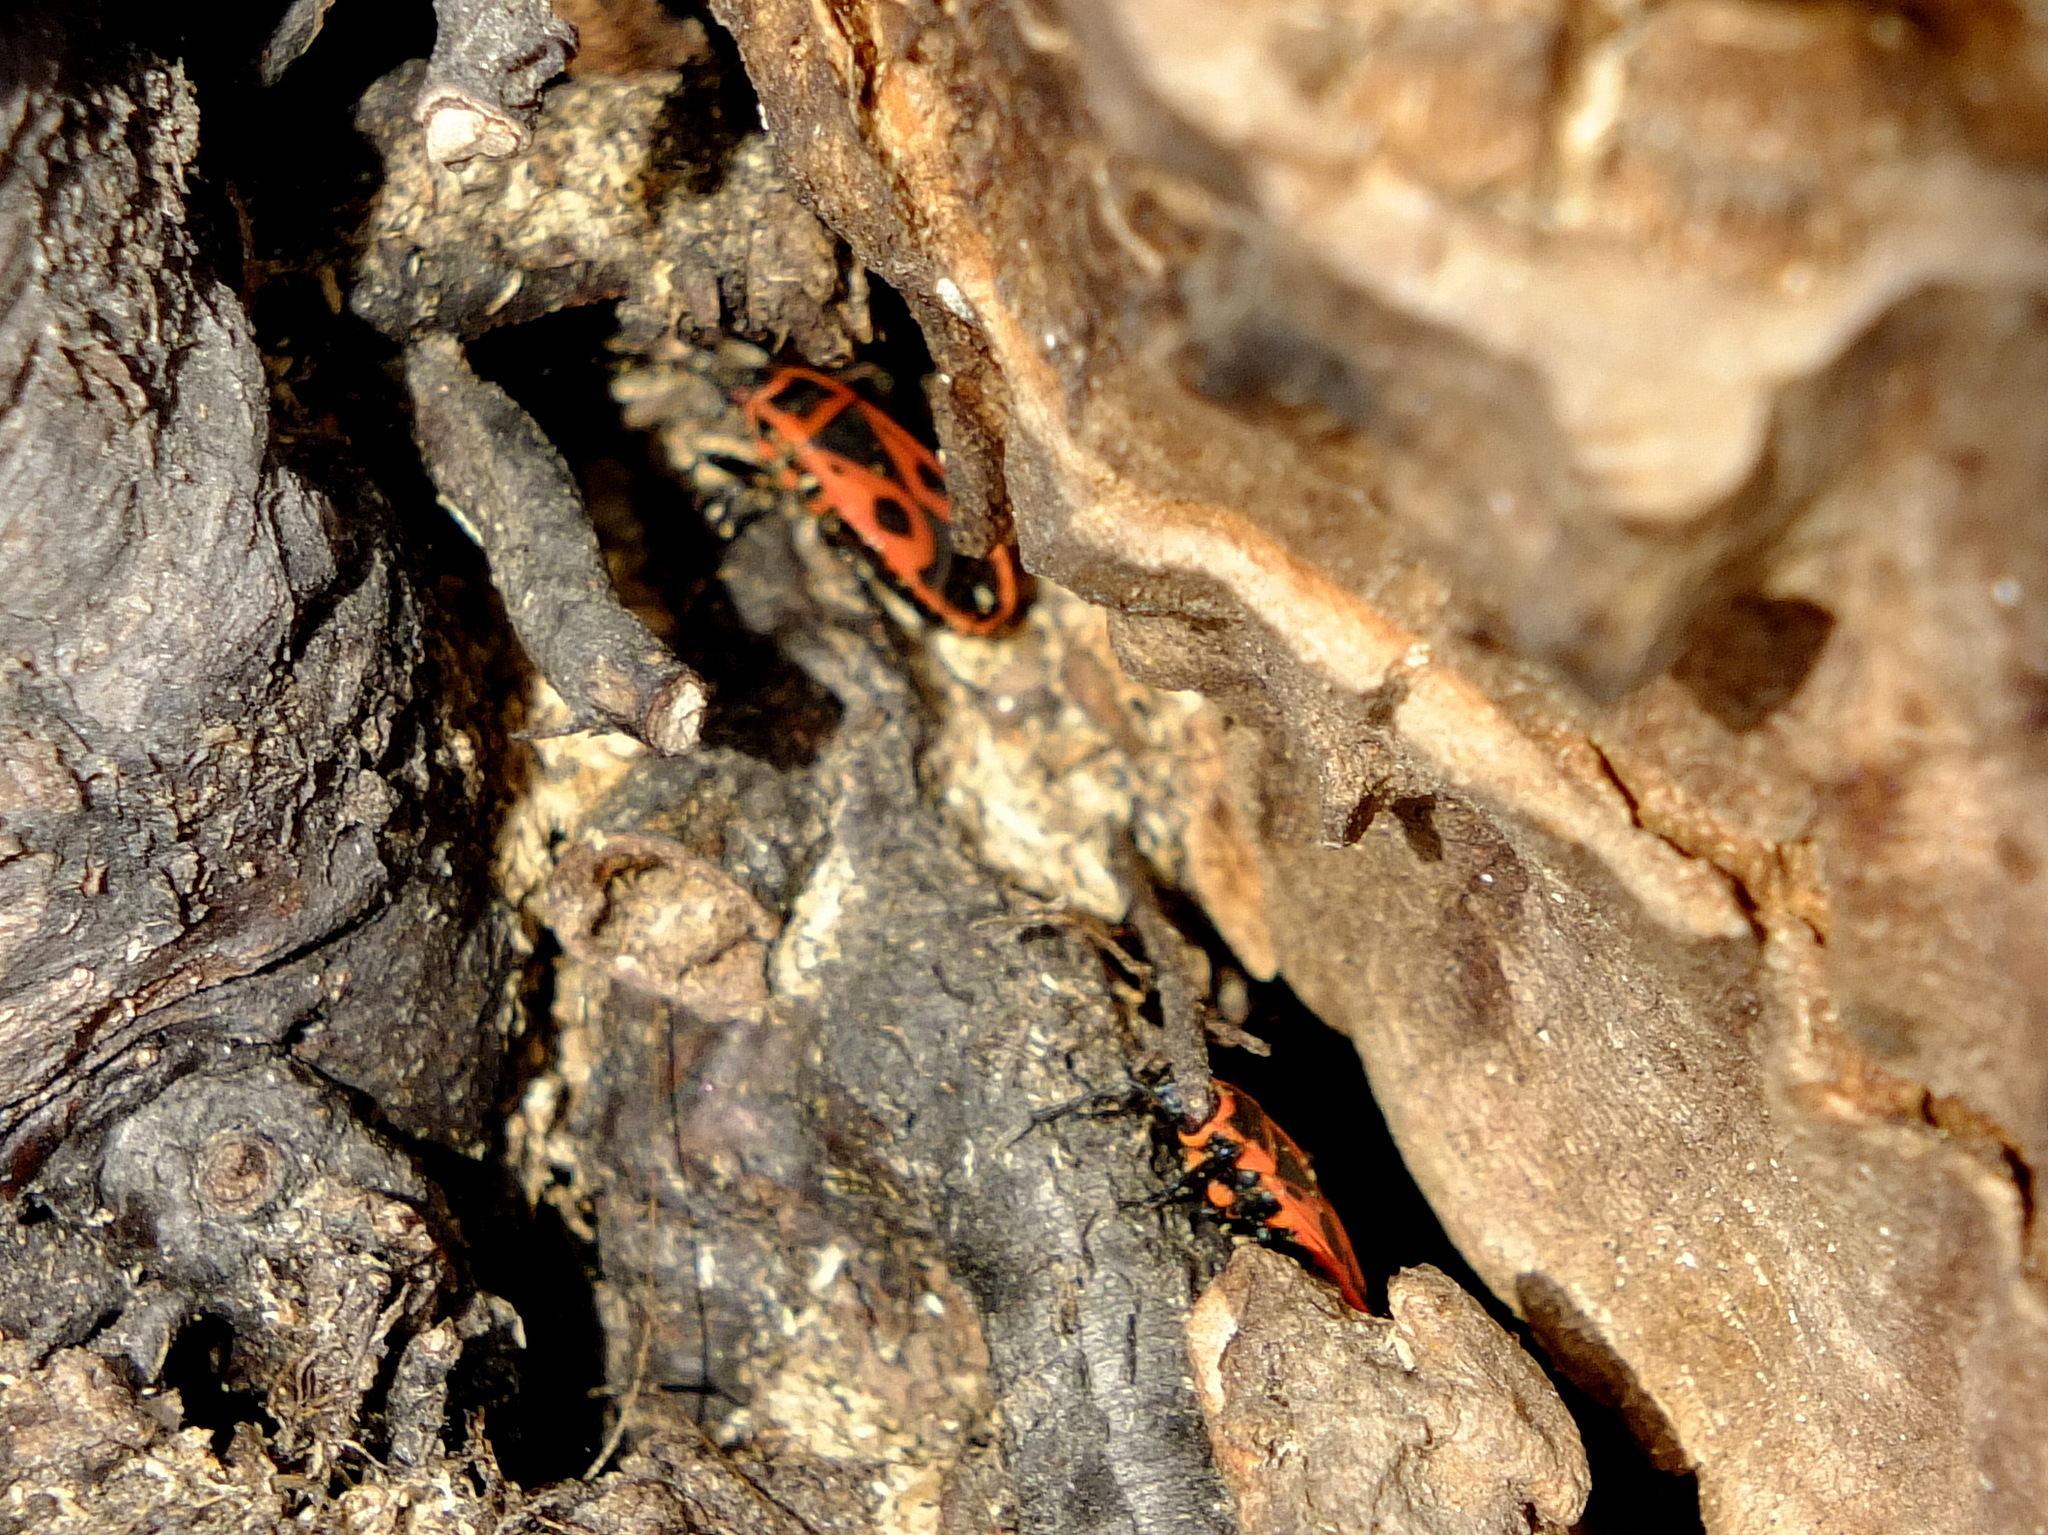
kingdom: Animalia
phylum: Arthropoda
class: Insecta
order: Hemiptera
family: Pyrrhocoridae
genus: Pyrrhocoris
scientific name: Pyrrhocoris apterus
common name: Firebug
